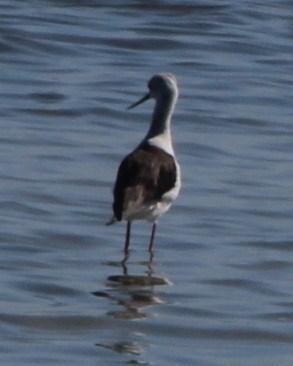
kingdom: Animalia
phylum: Chordata
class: Aves
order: Charadriiformes
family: Recurvirostridae
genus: Himantopus
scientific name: Himantopus himantopus
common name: Black-winged stilt
